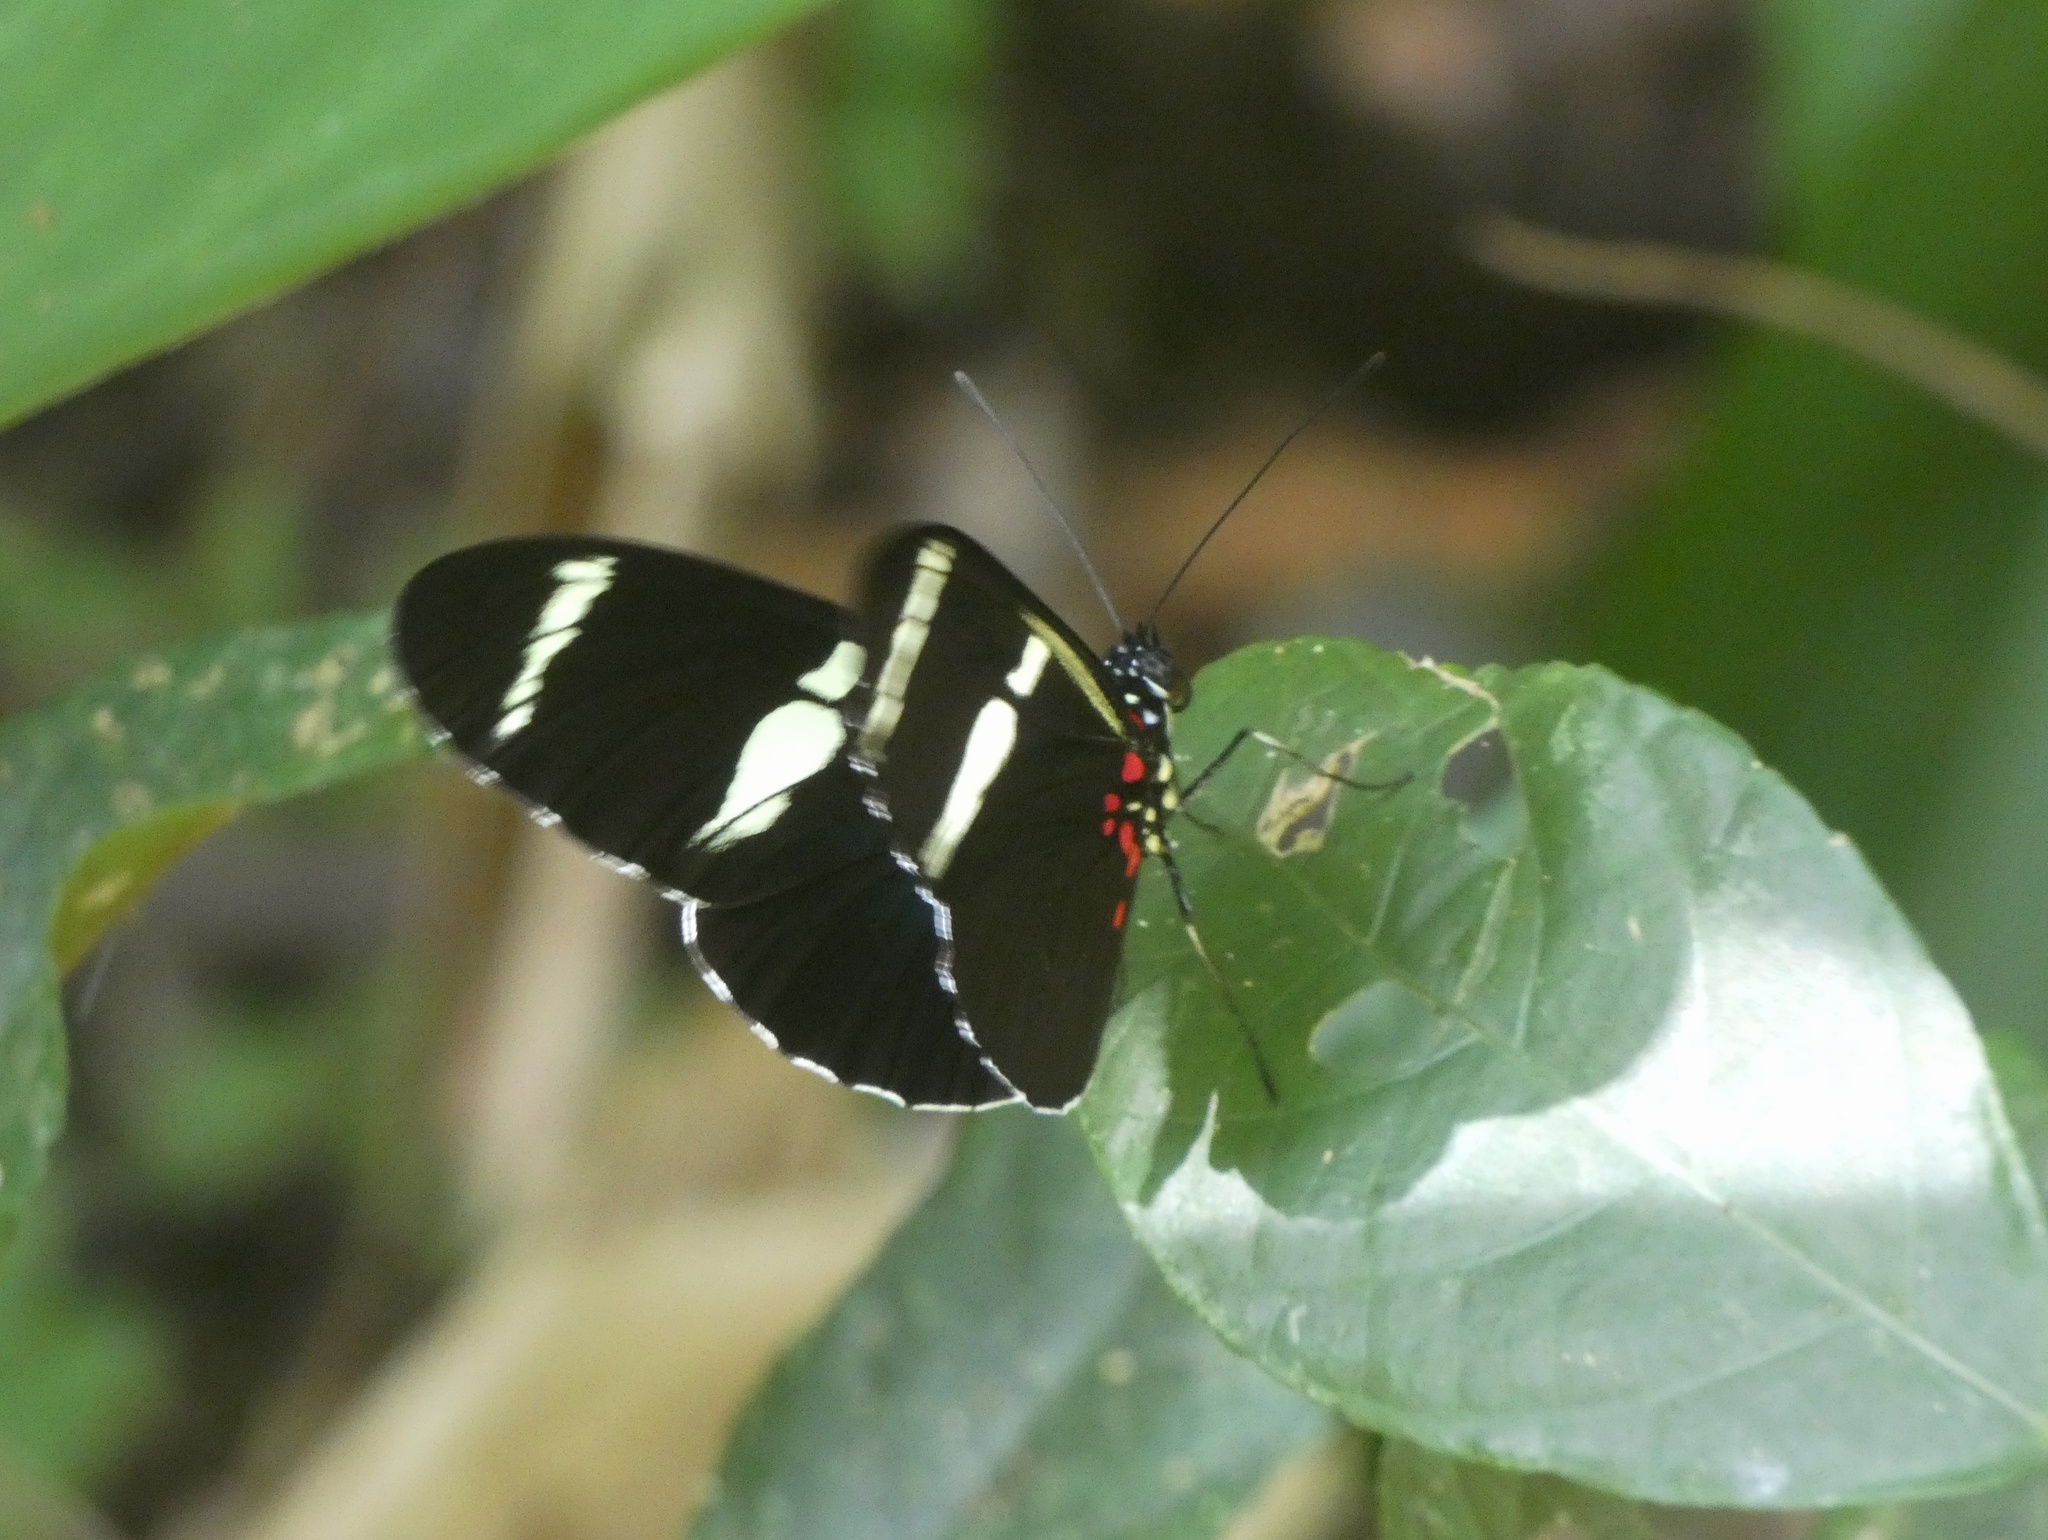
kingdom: Animalia
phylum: Arthropoda
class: Insecta
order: Lepidoptera
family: Nymphalidae
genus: Heliconius
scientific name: Heliconius sara
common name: Sara longwing
